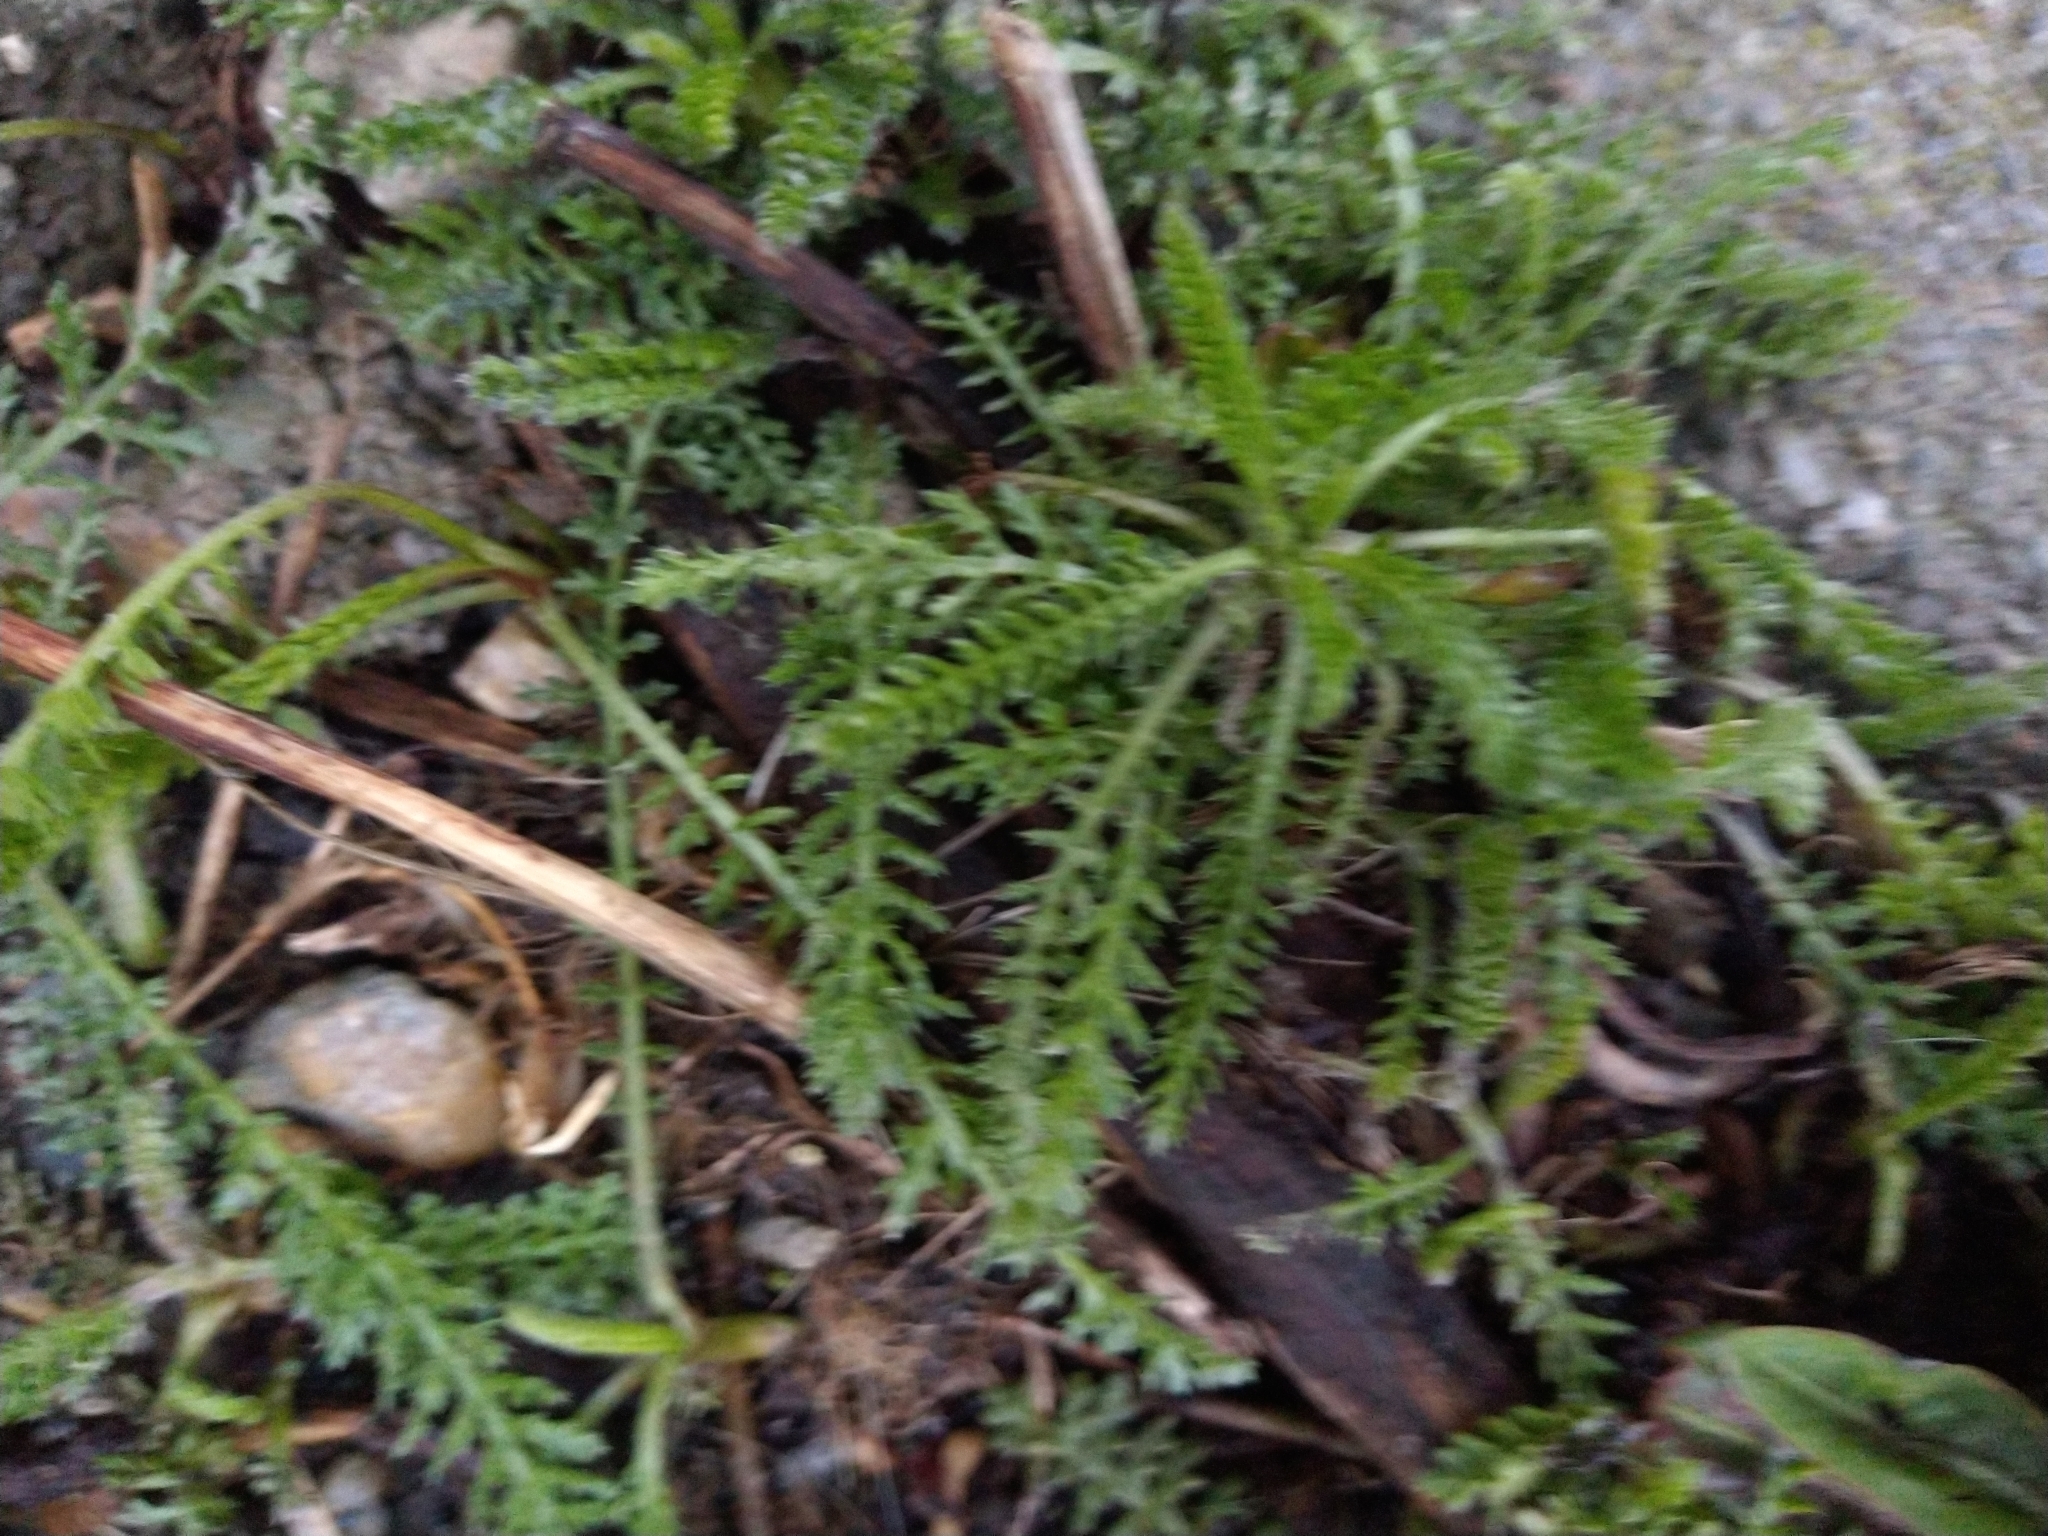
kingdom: Plantae
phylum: Tracheophyta
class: Magnoliopsida
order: Asterales
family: Asteraceae
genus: Achillea
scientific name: Achillea millefolium
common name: Yarrow
